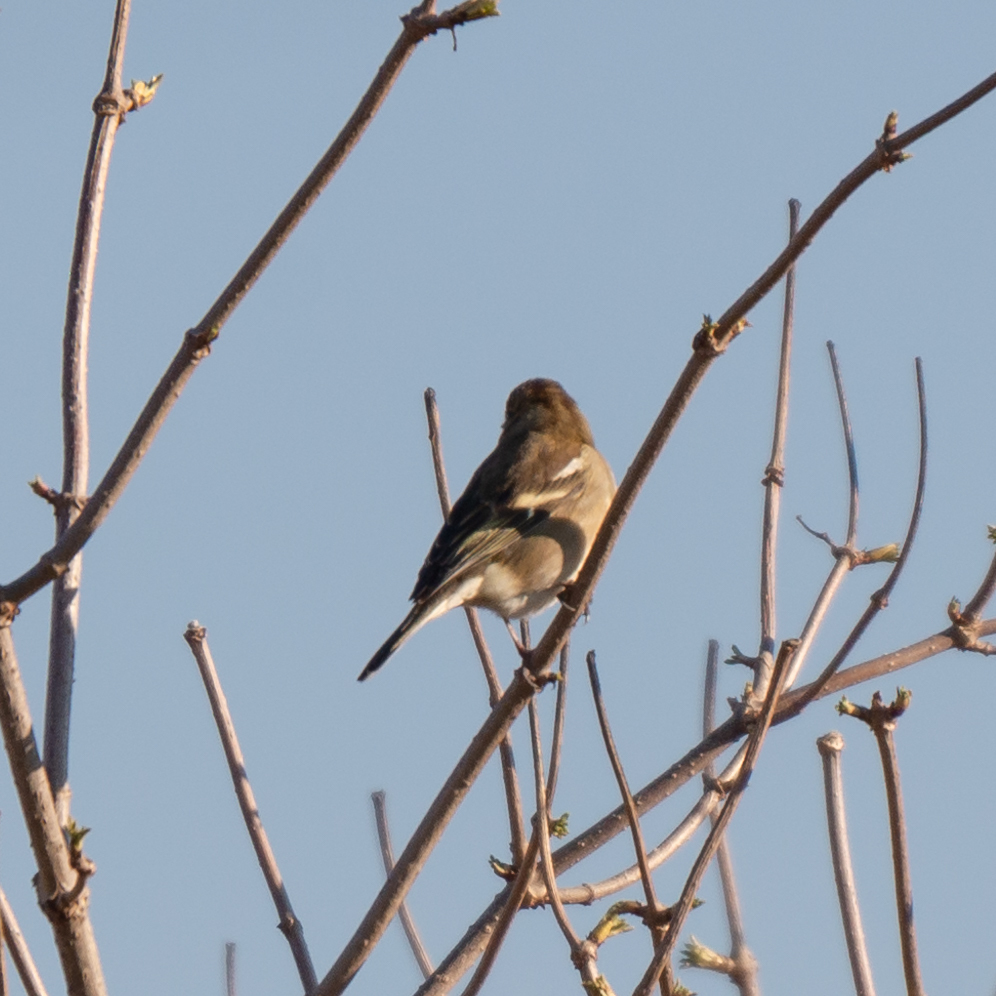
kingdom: Animalia
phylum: Chordata
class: Aves
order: Passeriformes
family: Fringillidae
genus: Fringilla
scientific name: Fringilla coelebs
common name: Common chaffinch
